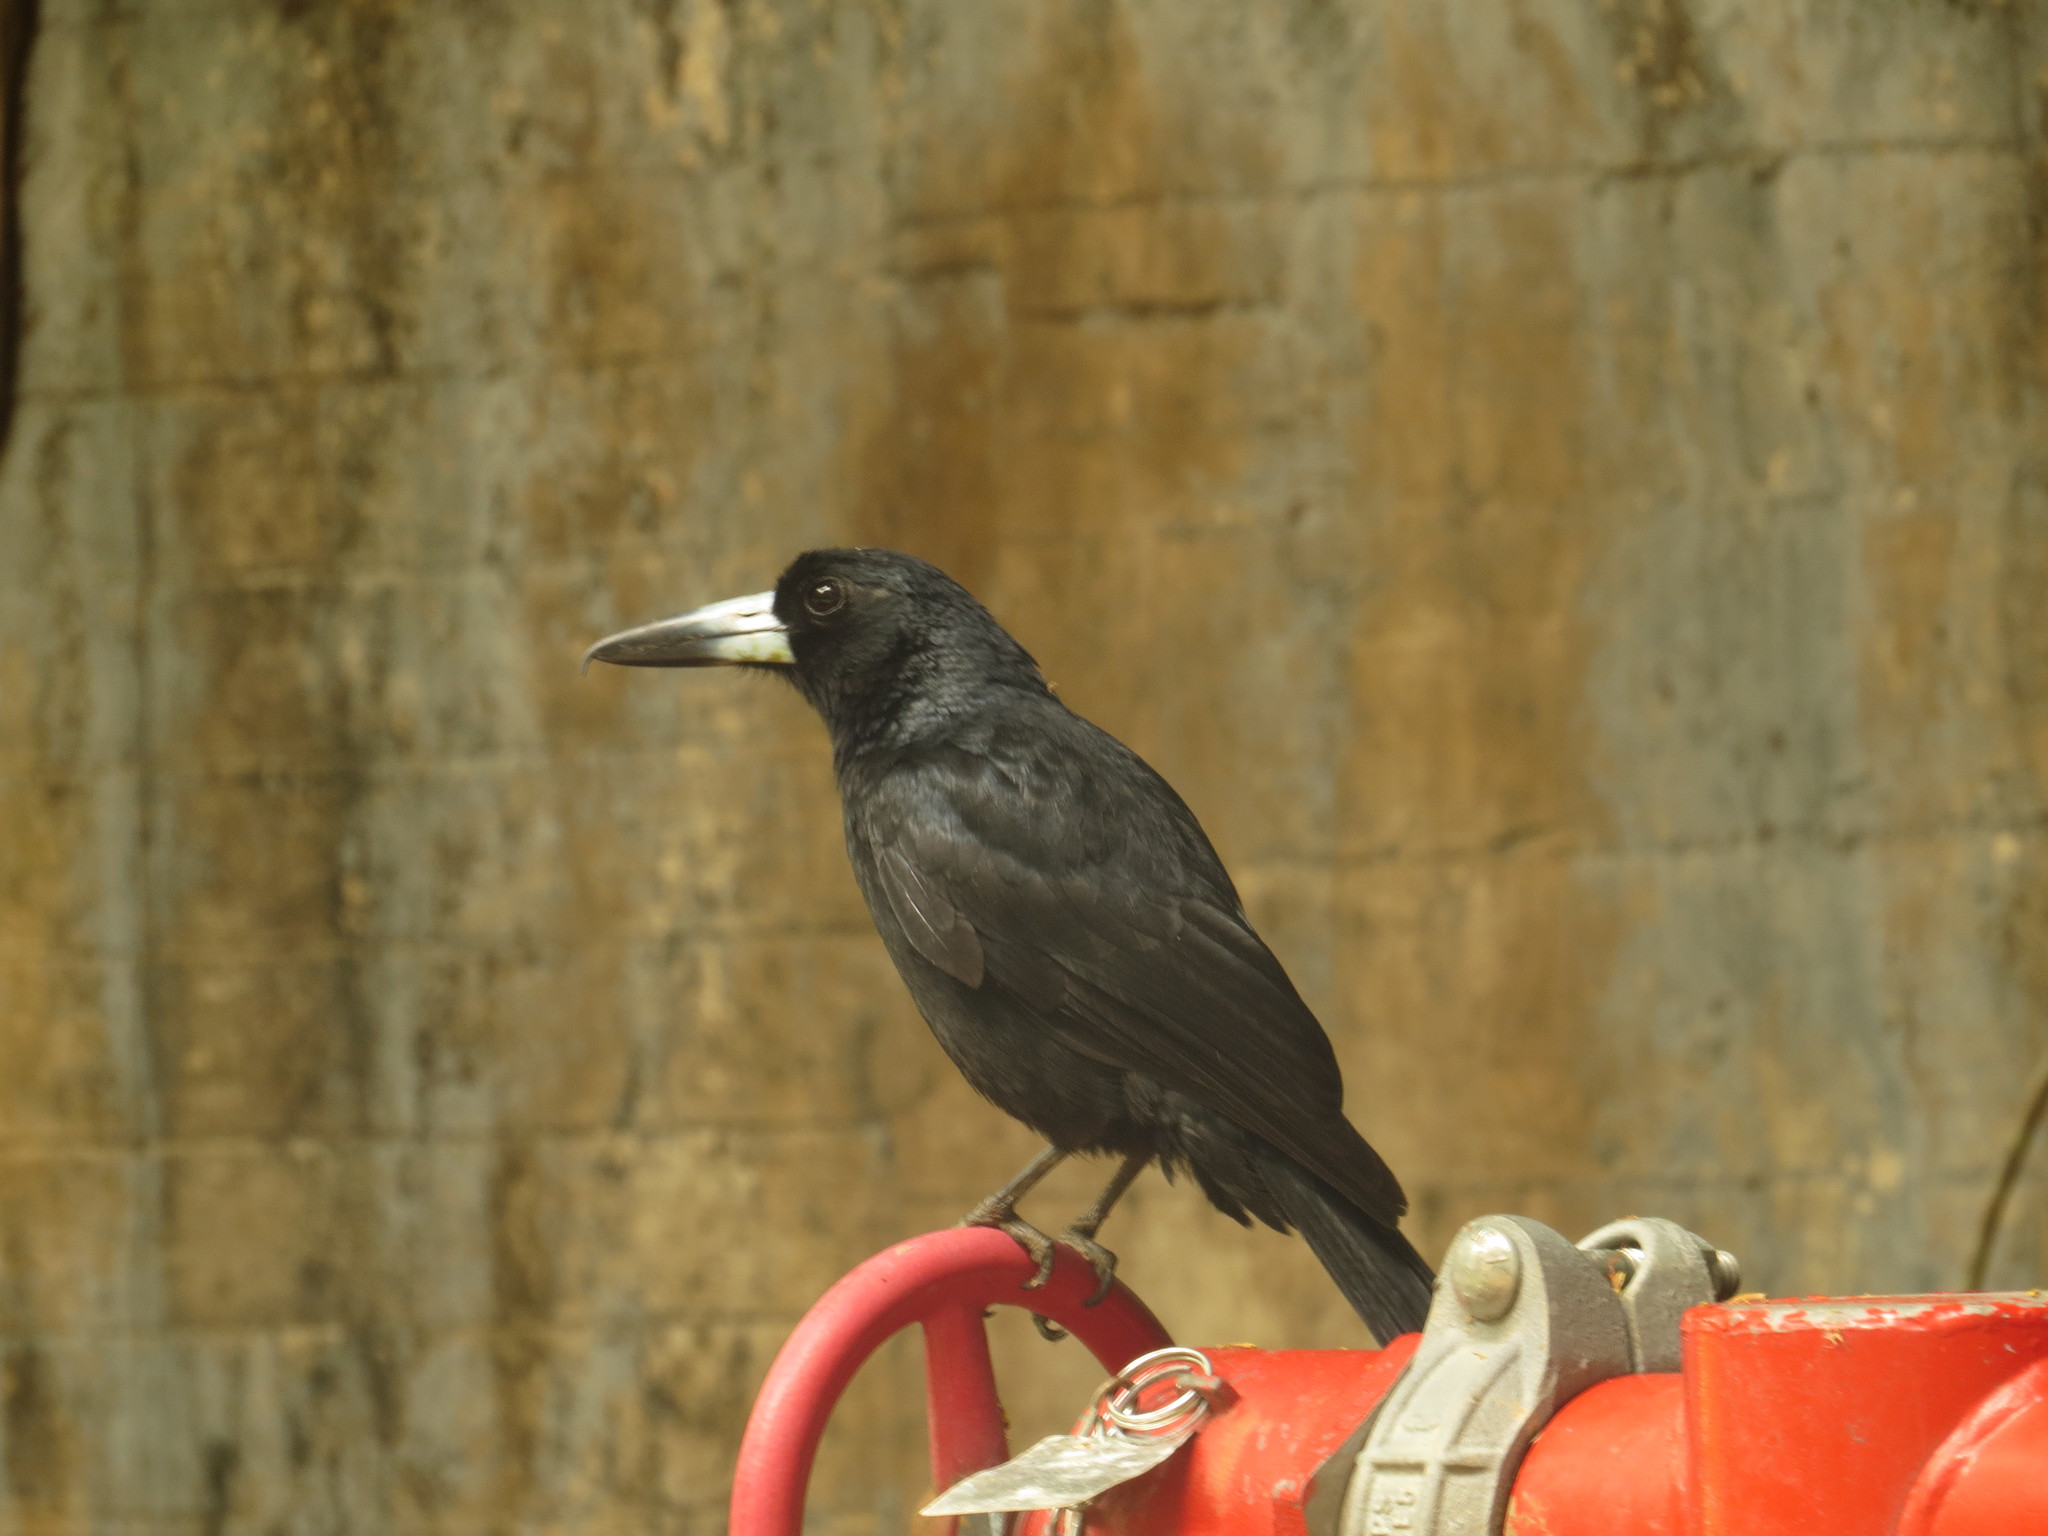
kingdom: Animalia
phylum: Chordata
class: Aves
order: Passeriformes
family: Artamidae
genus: Melloria
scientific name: Melloria quoyi
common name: Black butcherbird
